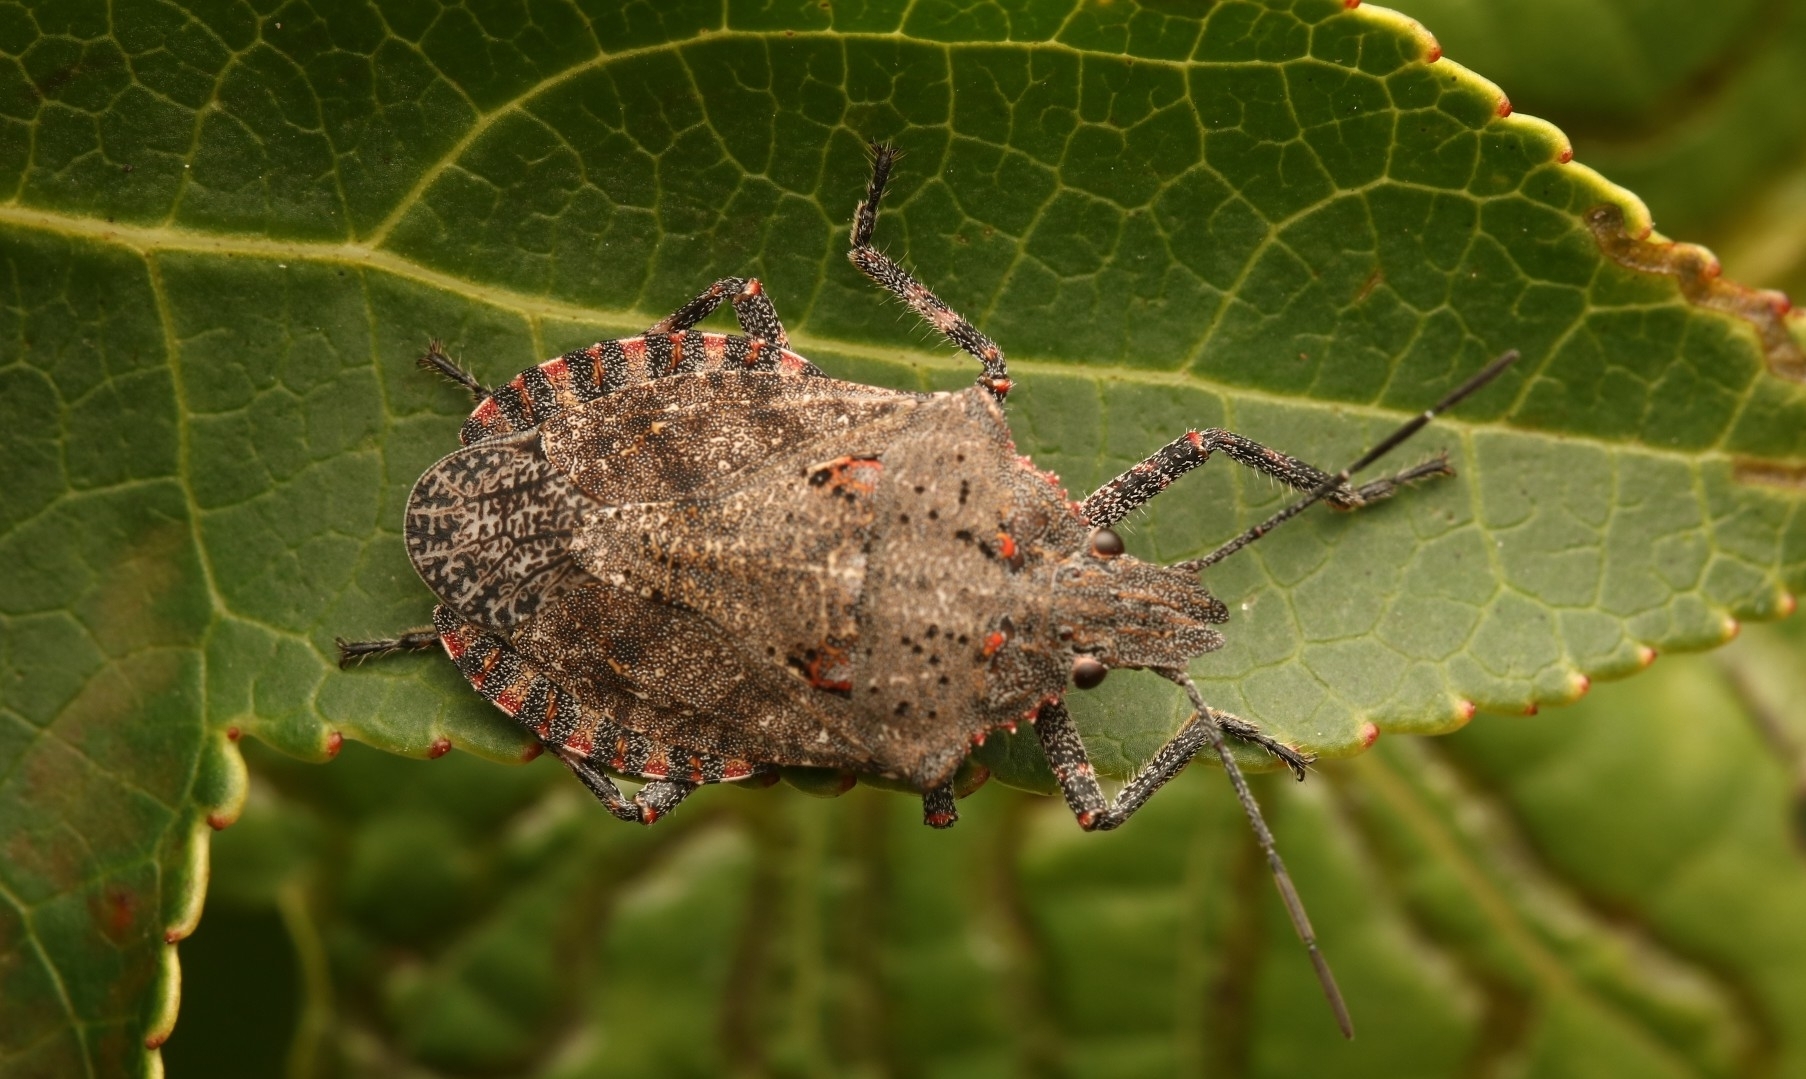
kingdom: Animalia
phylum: Arthropoda
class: Insecta
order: Hemiptera
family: Pentatomidae
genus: Brochymena
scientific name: Brochymena quadripustulata
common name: Four-humped stink bug
